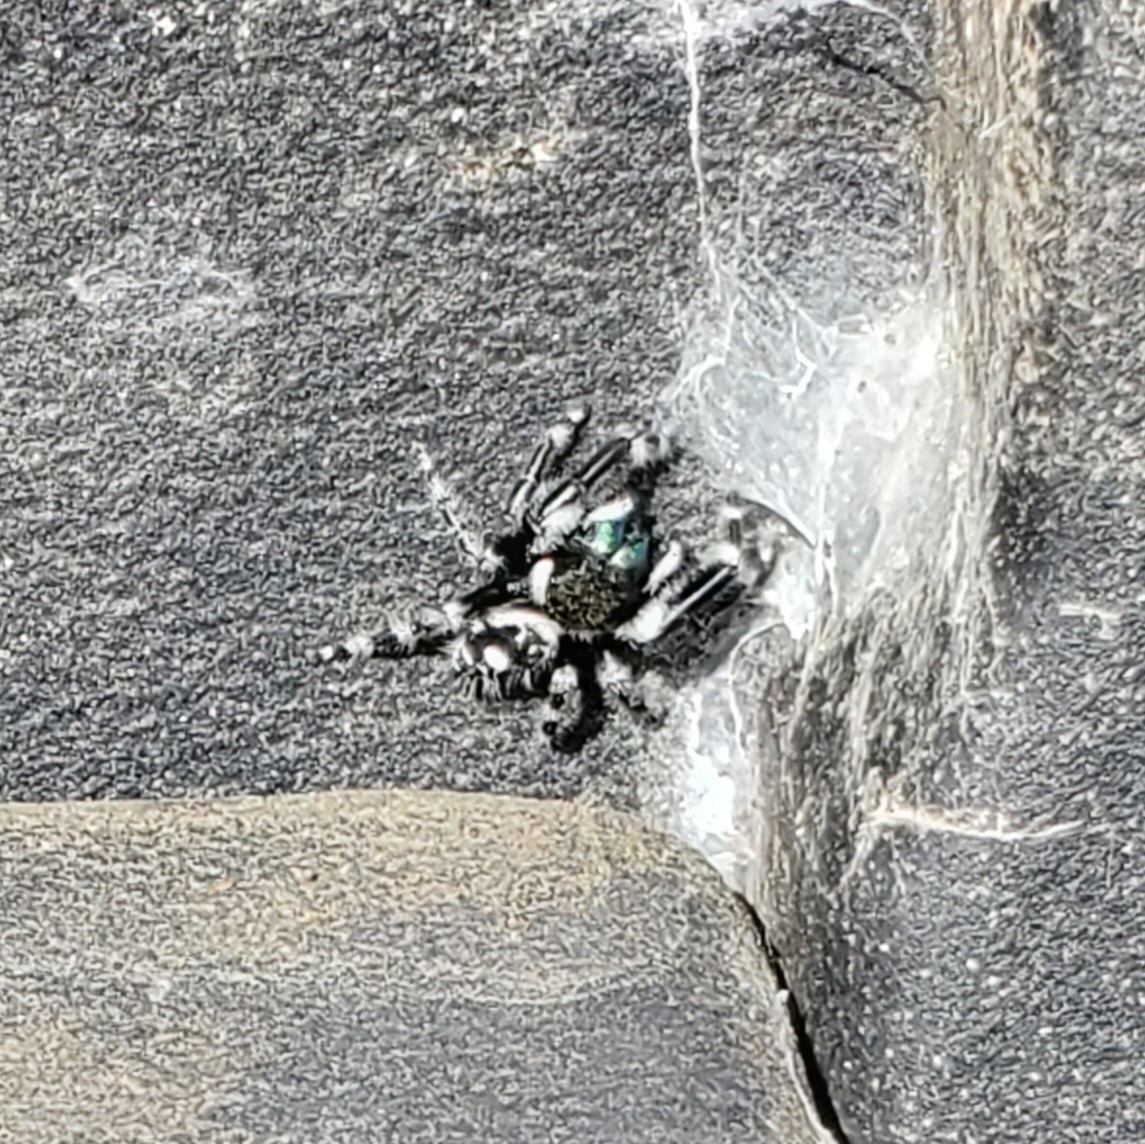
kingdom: Animalia
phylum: Arthropoda
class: Arachnida
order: Araneae
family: Salticidae
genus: Phidippus
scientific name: Phidippus audax
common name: Bold jumper
